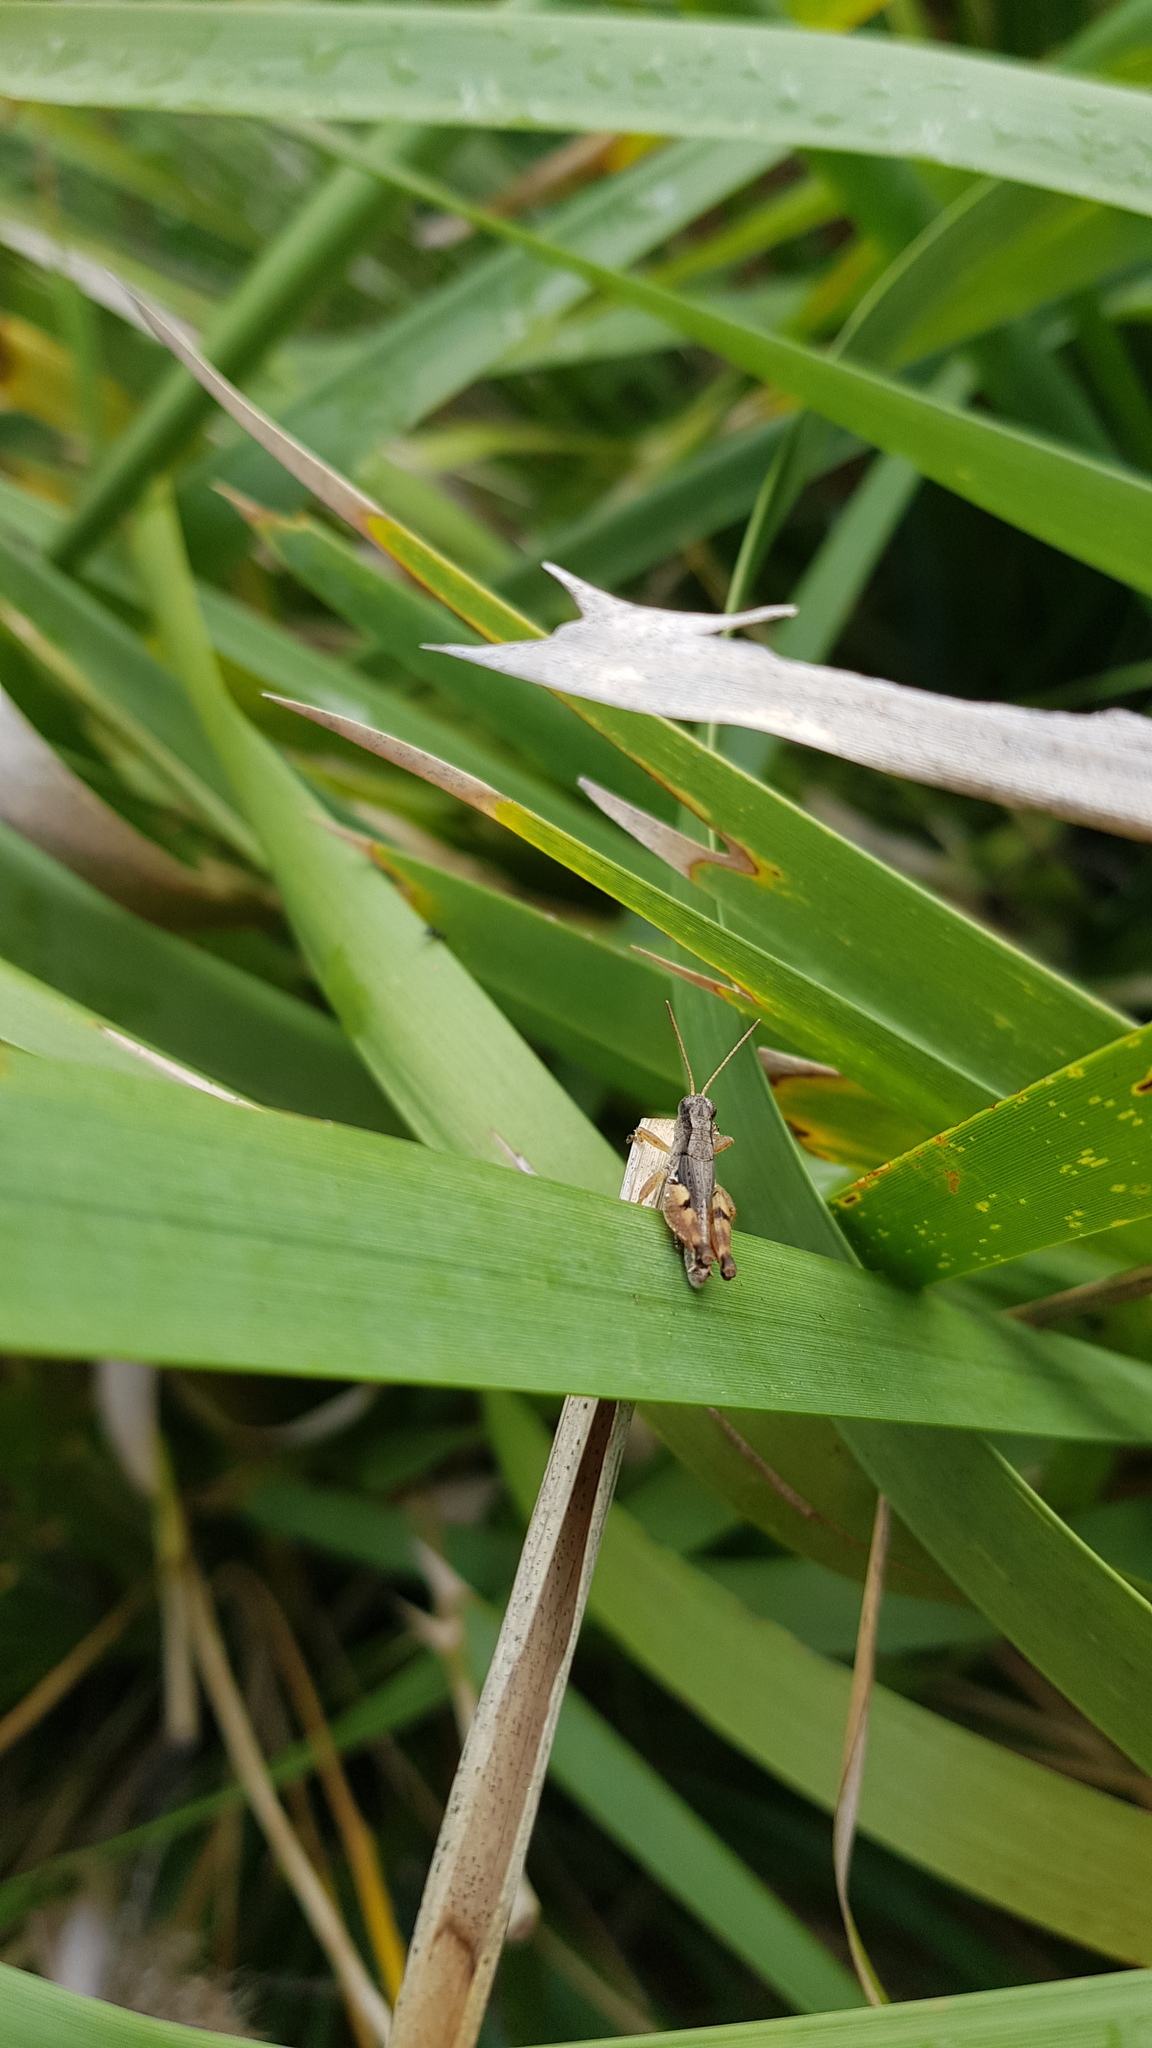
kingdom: Animalia
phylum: Arthropoda
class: Insecta
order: Orthoptera
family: Acrididae
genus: Phaulacridium
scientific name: Phaulacridium vittatum
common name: Wingless grasshopper
